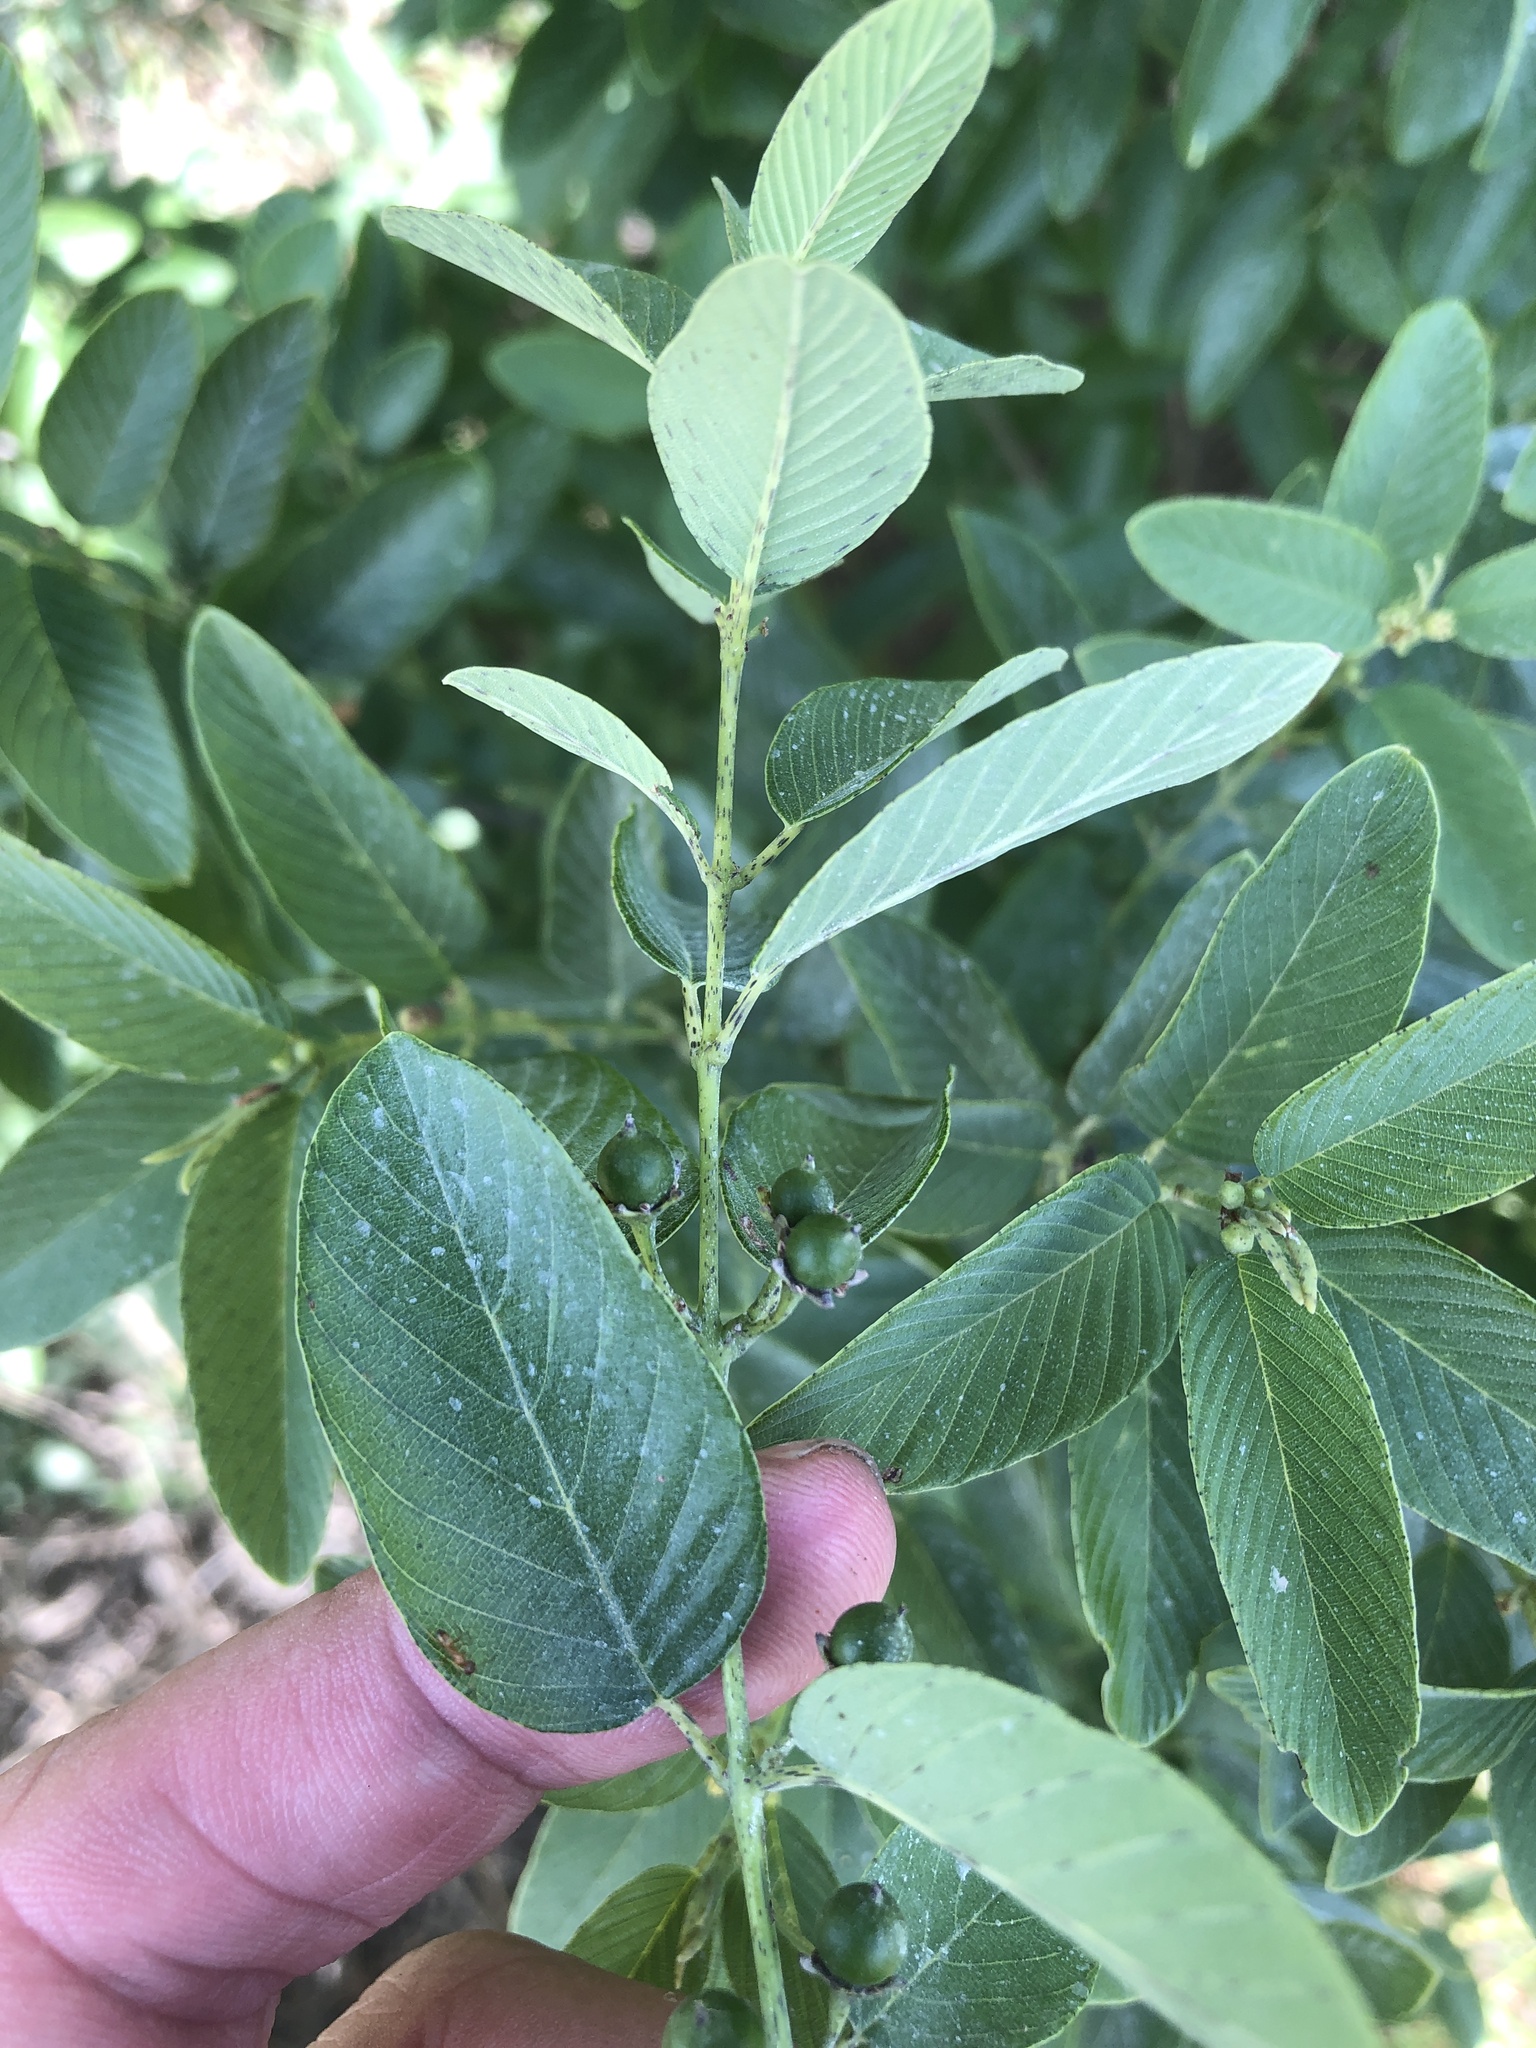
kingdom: Plantae
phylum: Tracheophyta
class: Magnoliopsida
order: Rosales
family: Rhamnaceae
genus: Karwinskia
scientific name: Karwinskia humboldtiana
